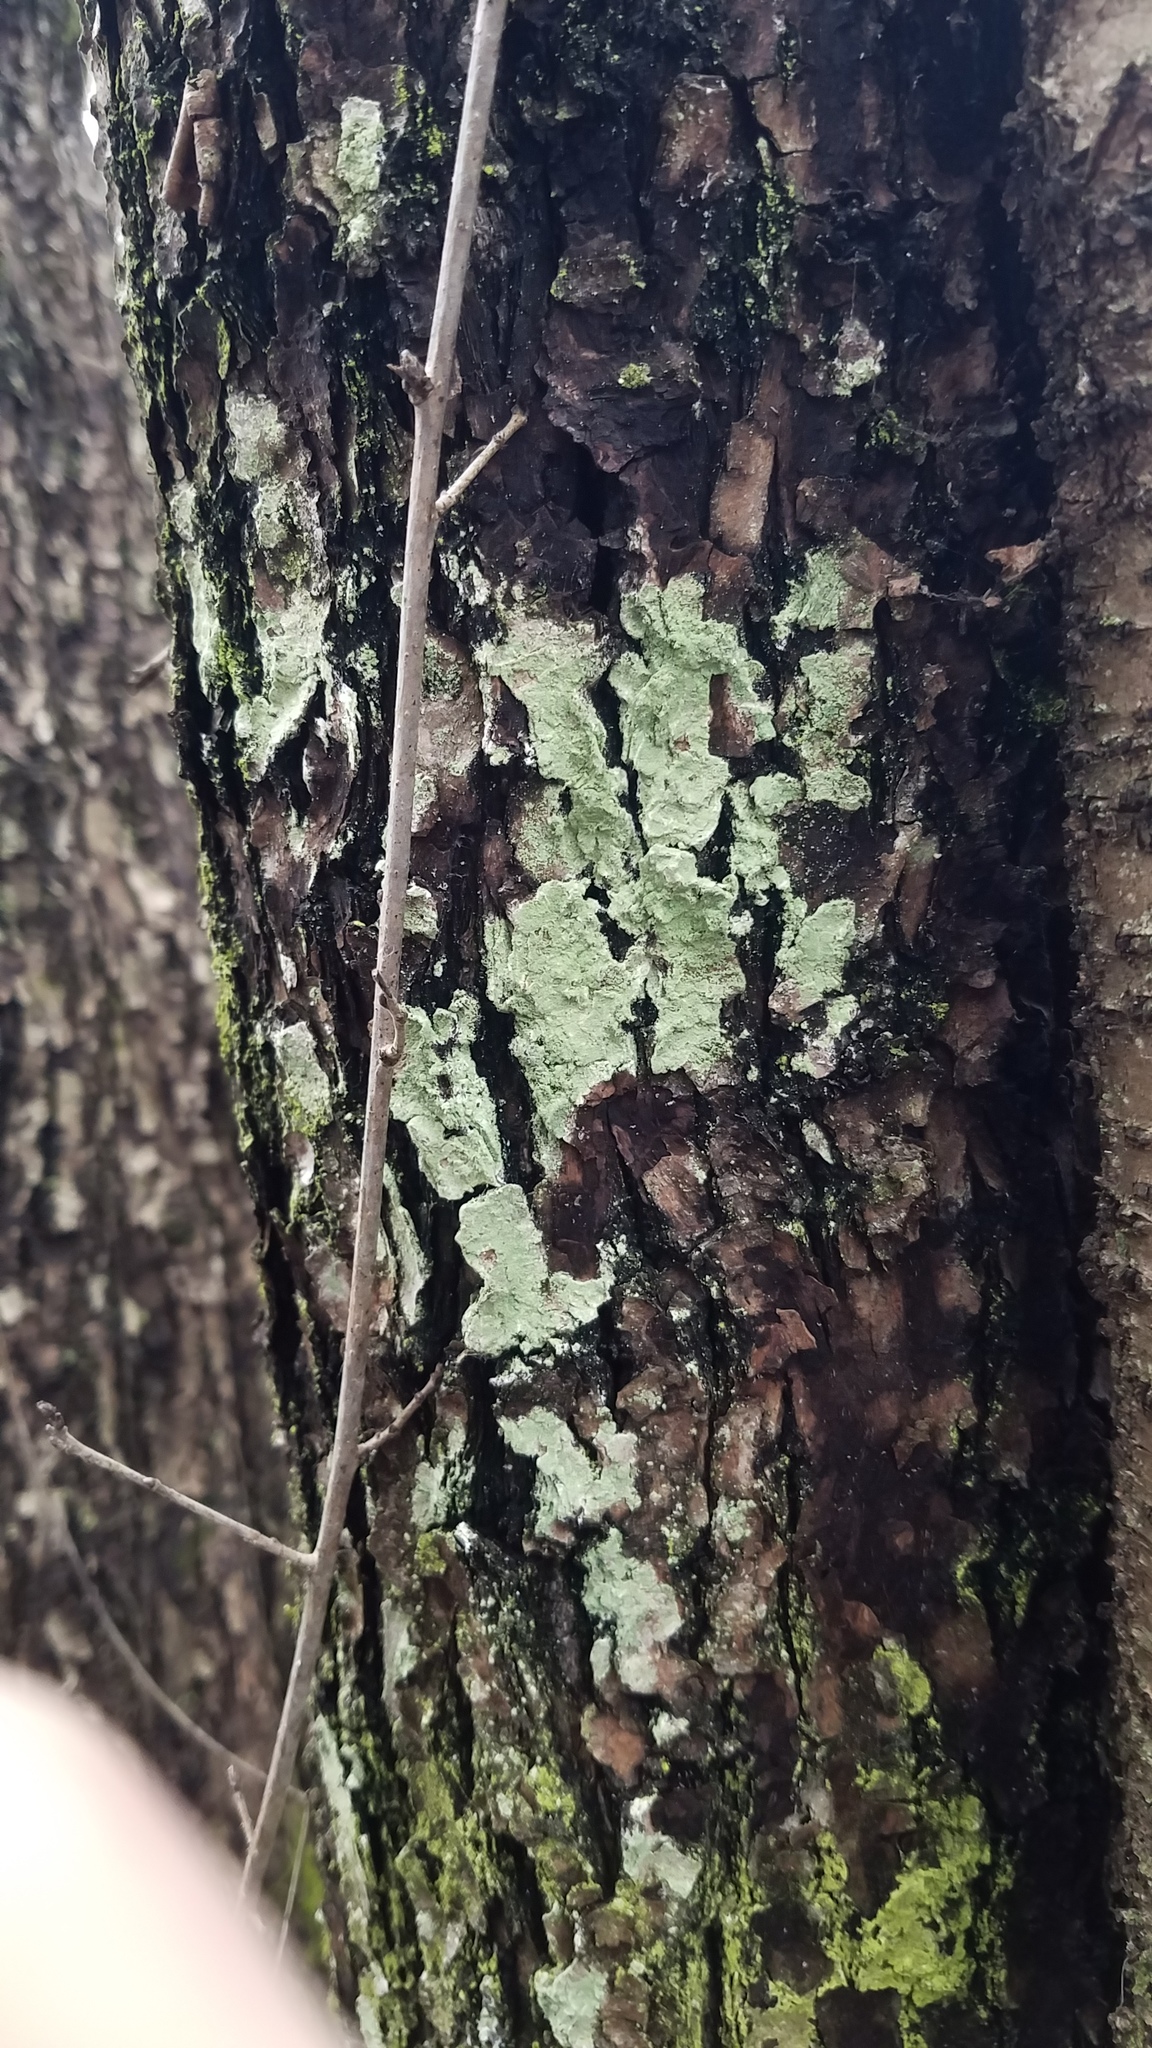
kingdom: Plantae
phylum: Tracheophyta
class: Magnoliopsida
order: Rosales
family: Rhamnaceae
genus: Rhamnus
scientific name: Rhamnus cathartica
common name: Common buckthorn
